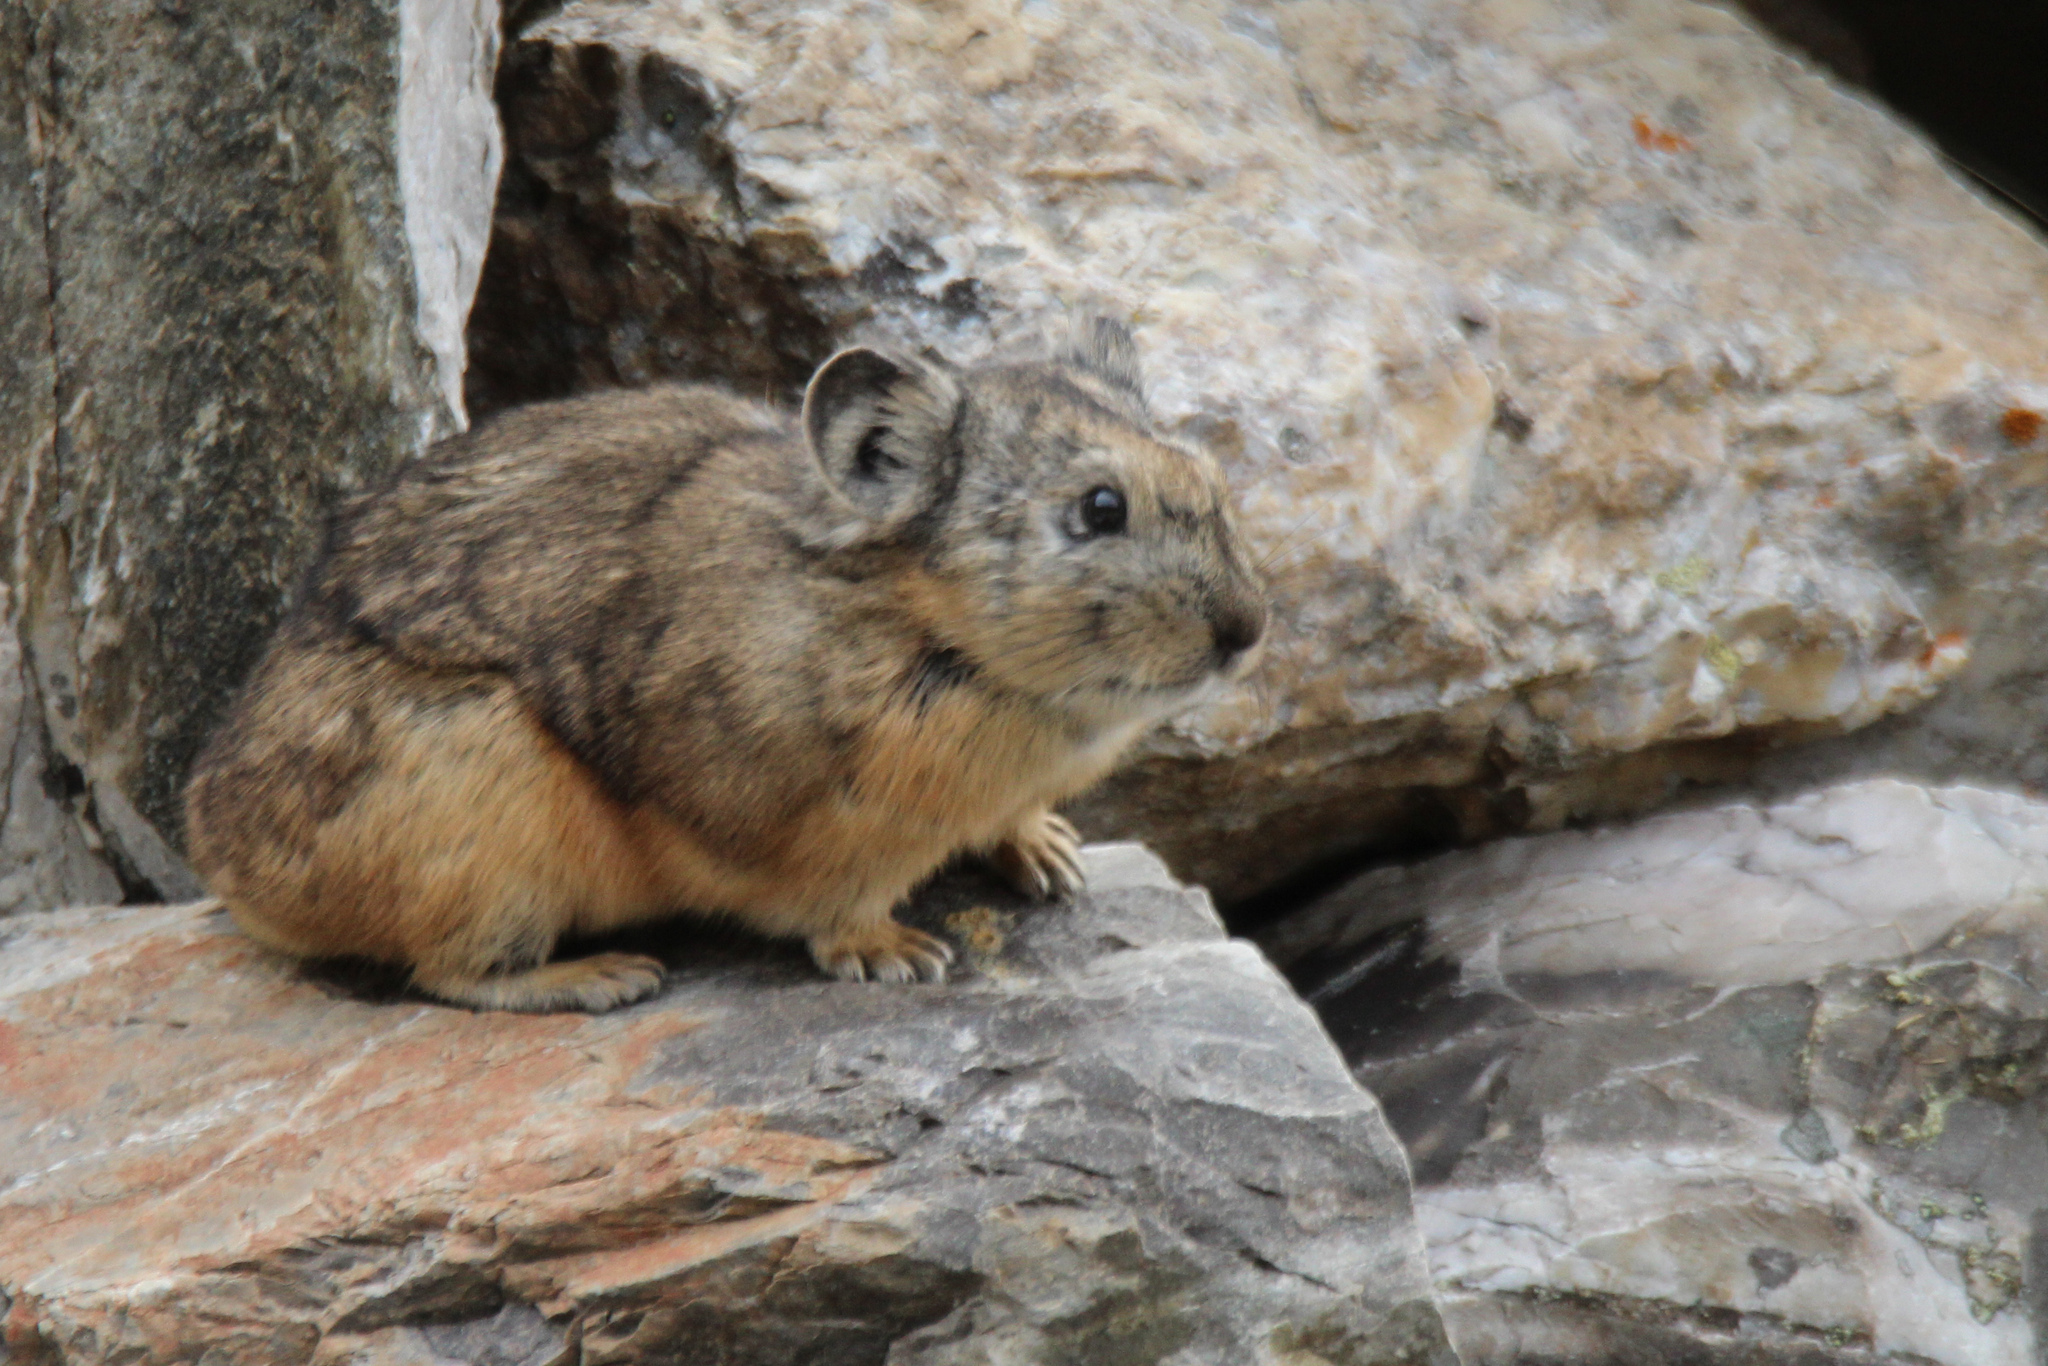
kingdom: Animalia
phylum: Chordata
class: Mammalia
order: Lagomorpha
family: Ochotonidae
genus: Ochotona
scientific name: Ochotona alpina
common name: Alpine pika
